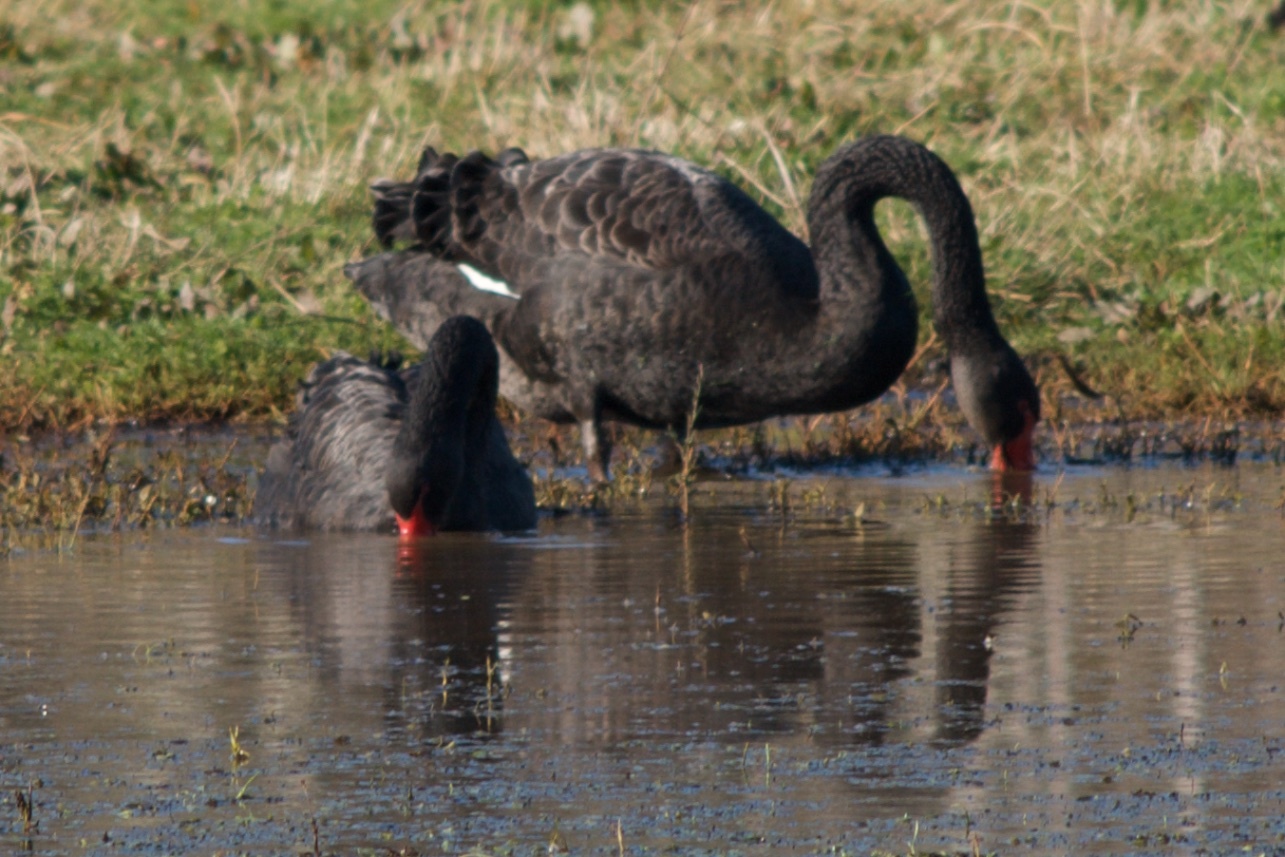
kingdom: Animalia
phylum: Chordata
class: Aves
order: Anseriformes
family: Anatidae
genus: Cygnus
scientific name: Cygnus atratus
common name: Black swan
